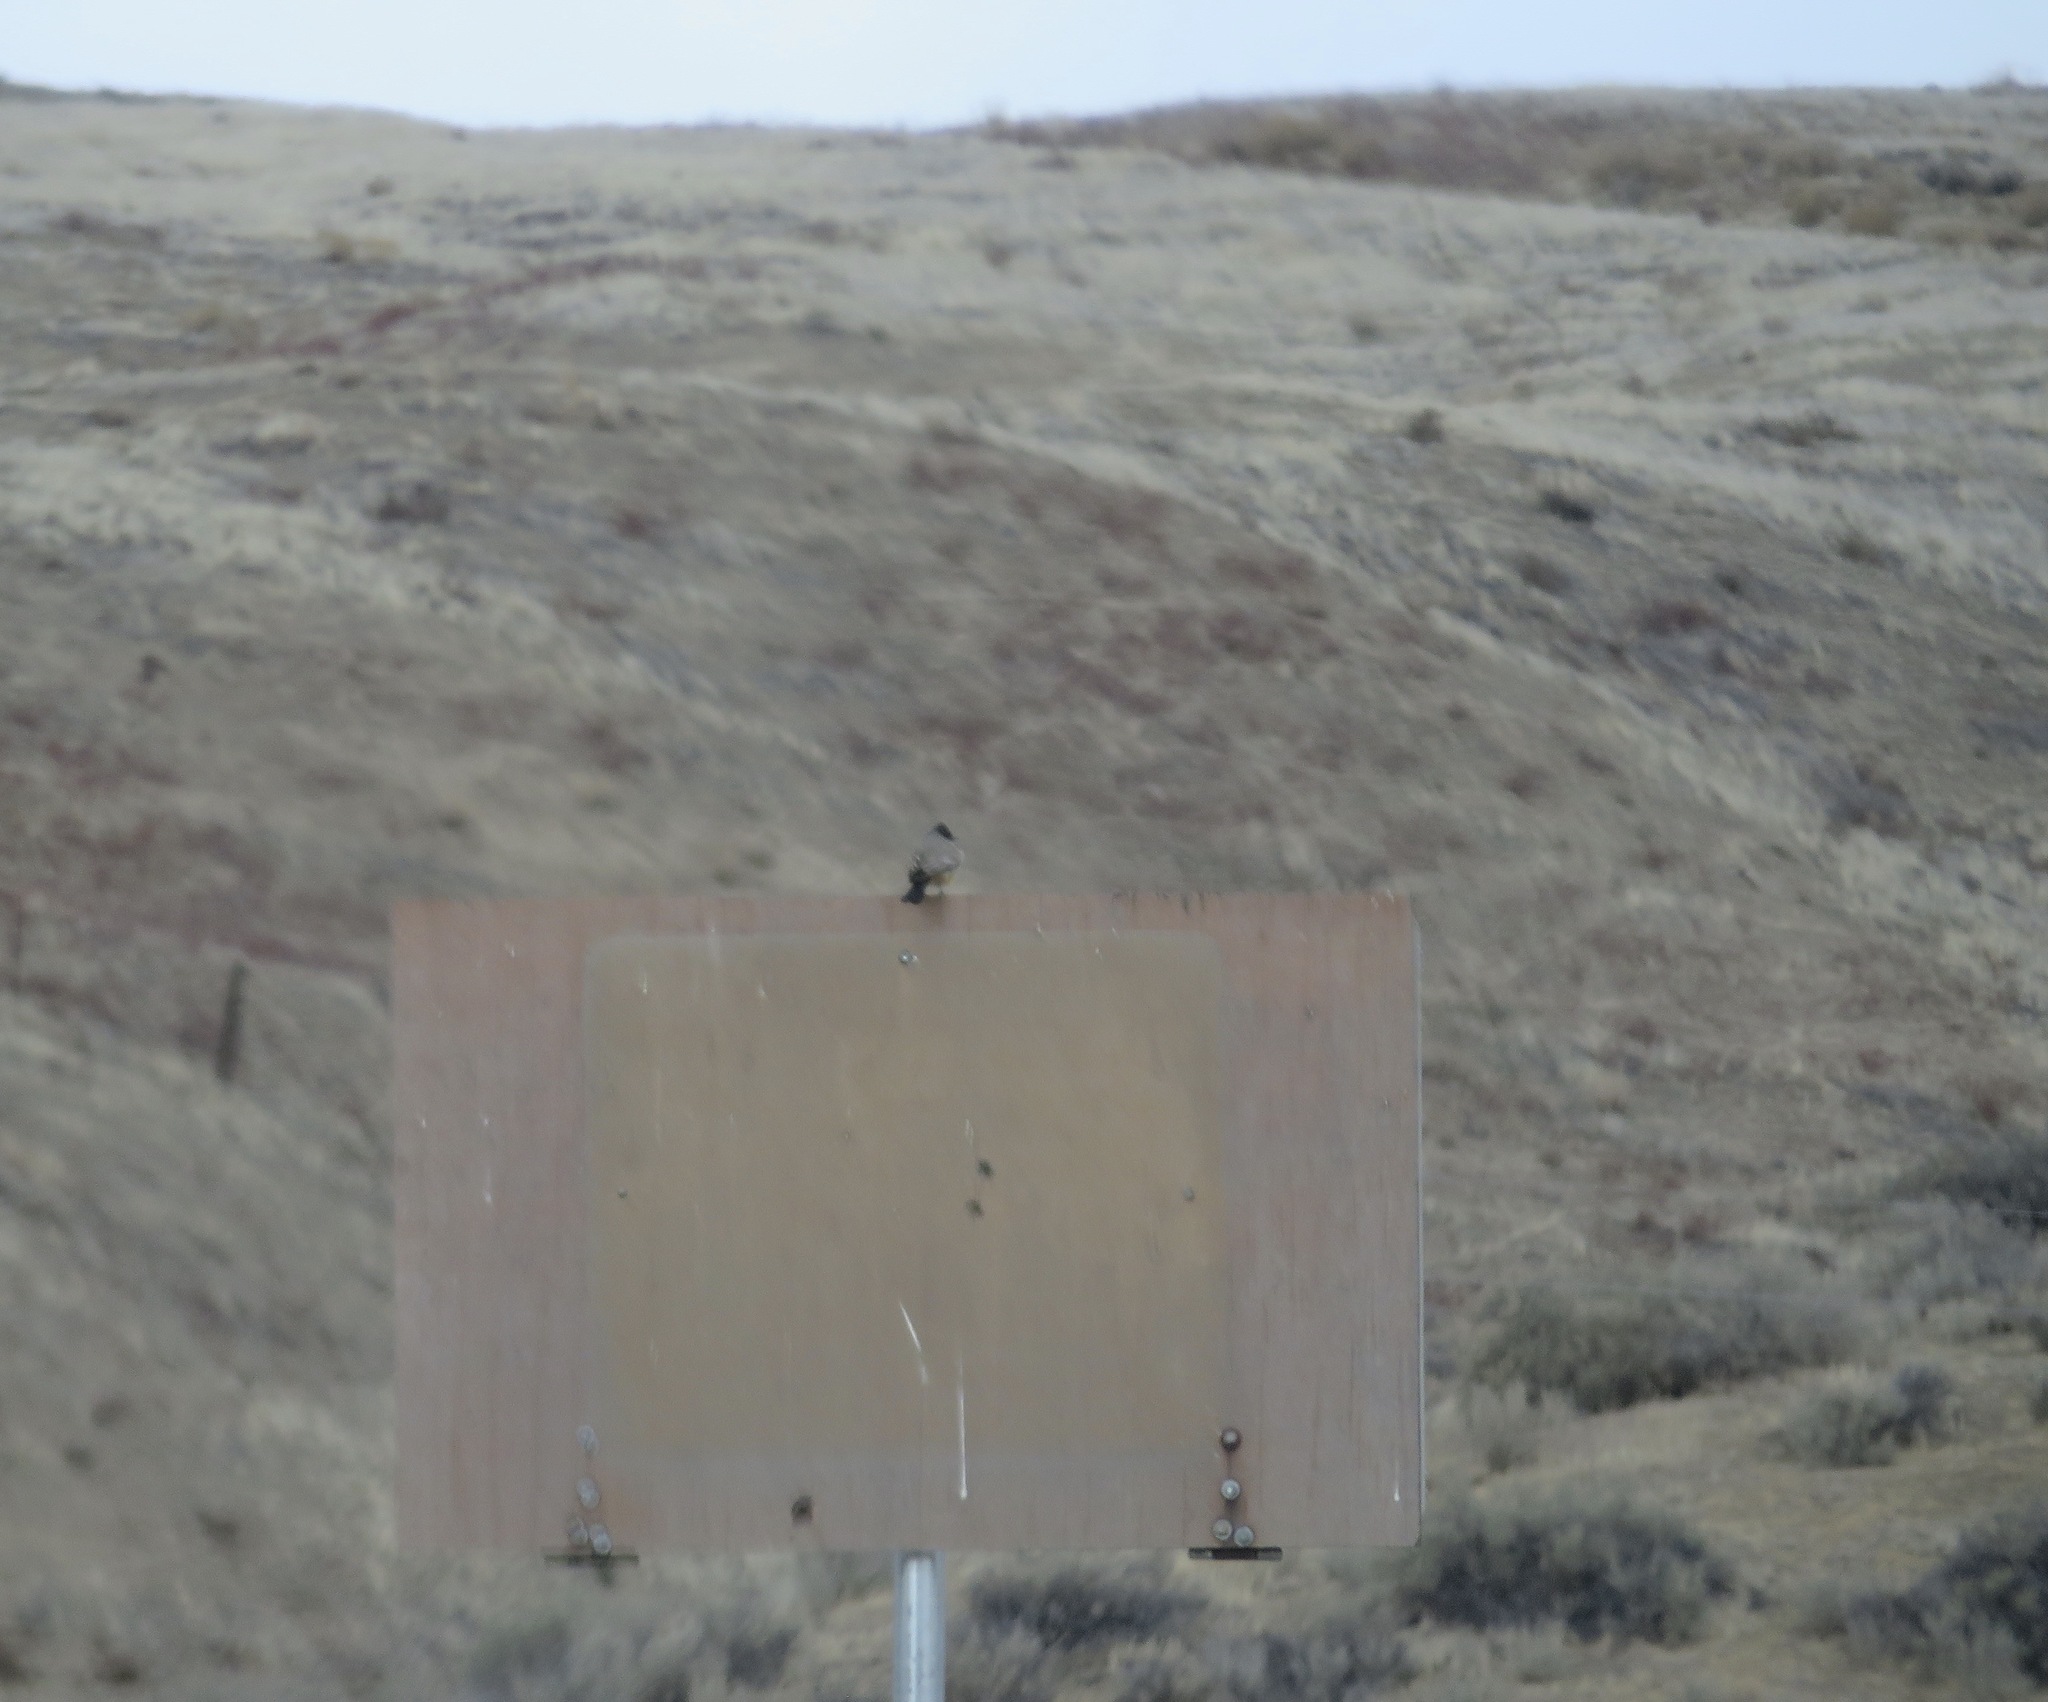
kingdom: Animalia
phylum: Chordata
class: Aves
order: Passeriformes
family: Tyrannidae
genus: Sayornis
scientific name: Sayornis saya
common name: Say's phoebe
